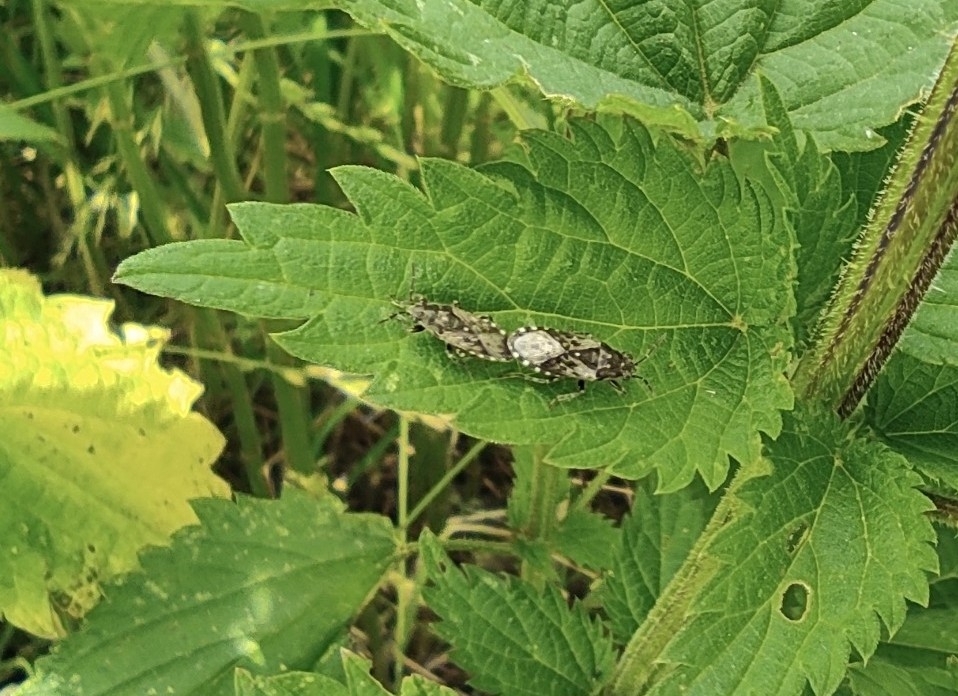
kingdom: Animalia
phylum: Arthropoda
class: Insecta
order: Hemiptera
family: Heterogastridae
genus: Heterogaster
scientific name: Heterogaster urticae
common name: Seed bug
